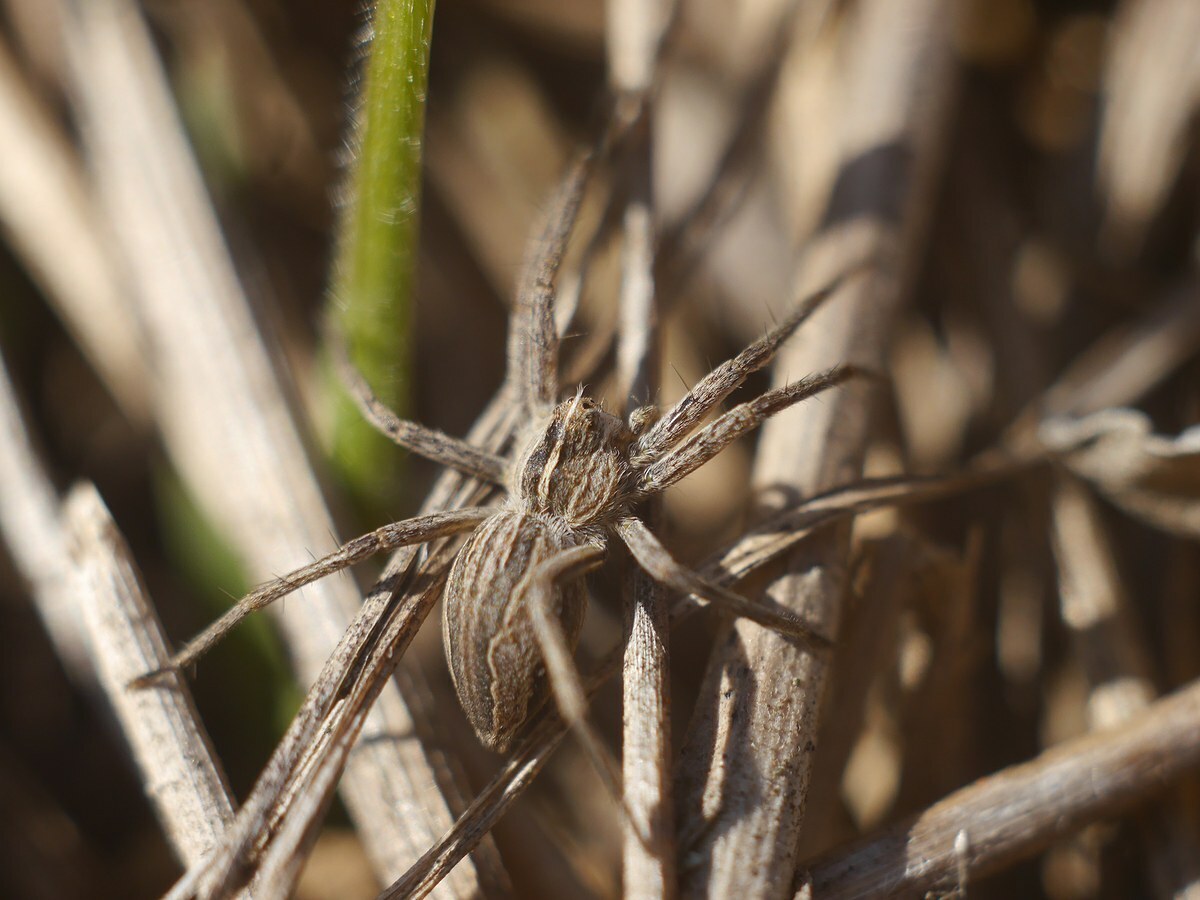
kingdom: Animalia
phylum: Arthropoda
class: Arachnida
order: Araneae
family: Pisauridae
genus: Pisaura
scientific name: Pisaura
